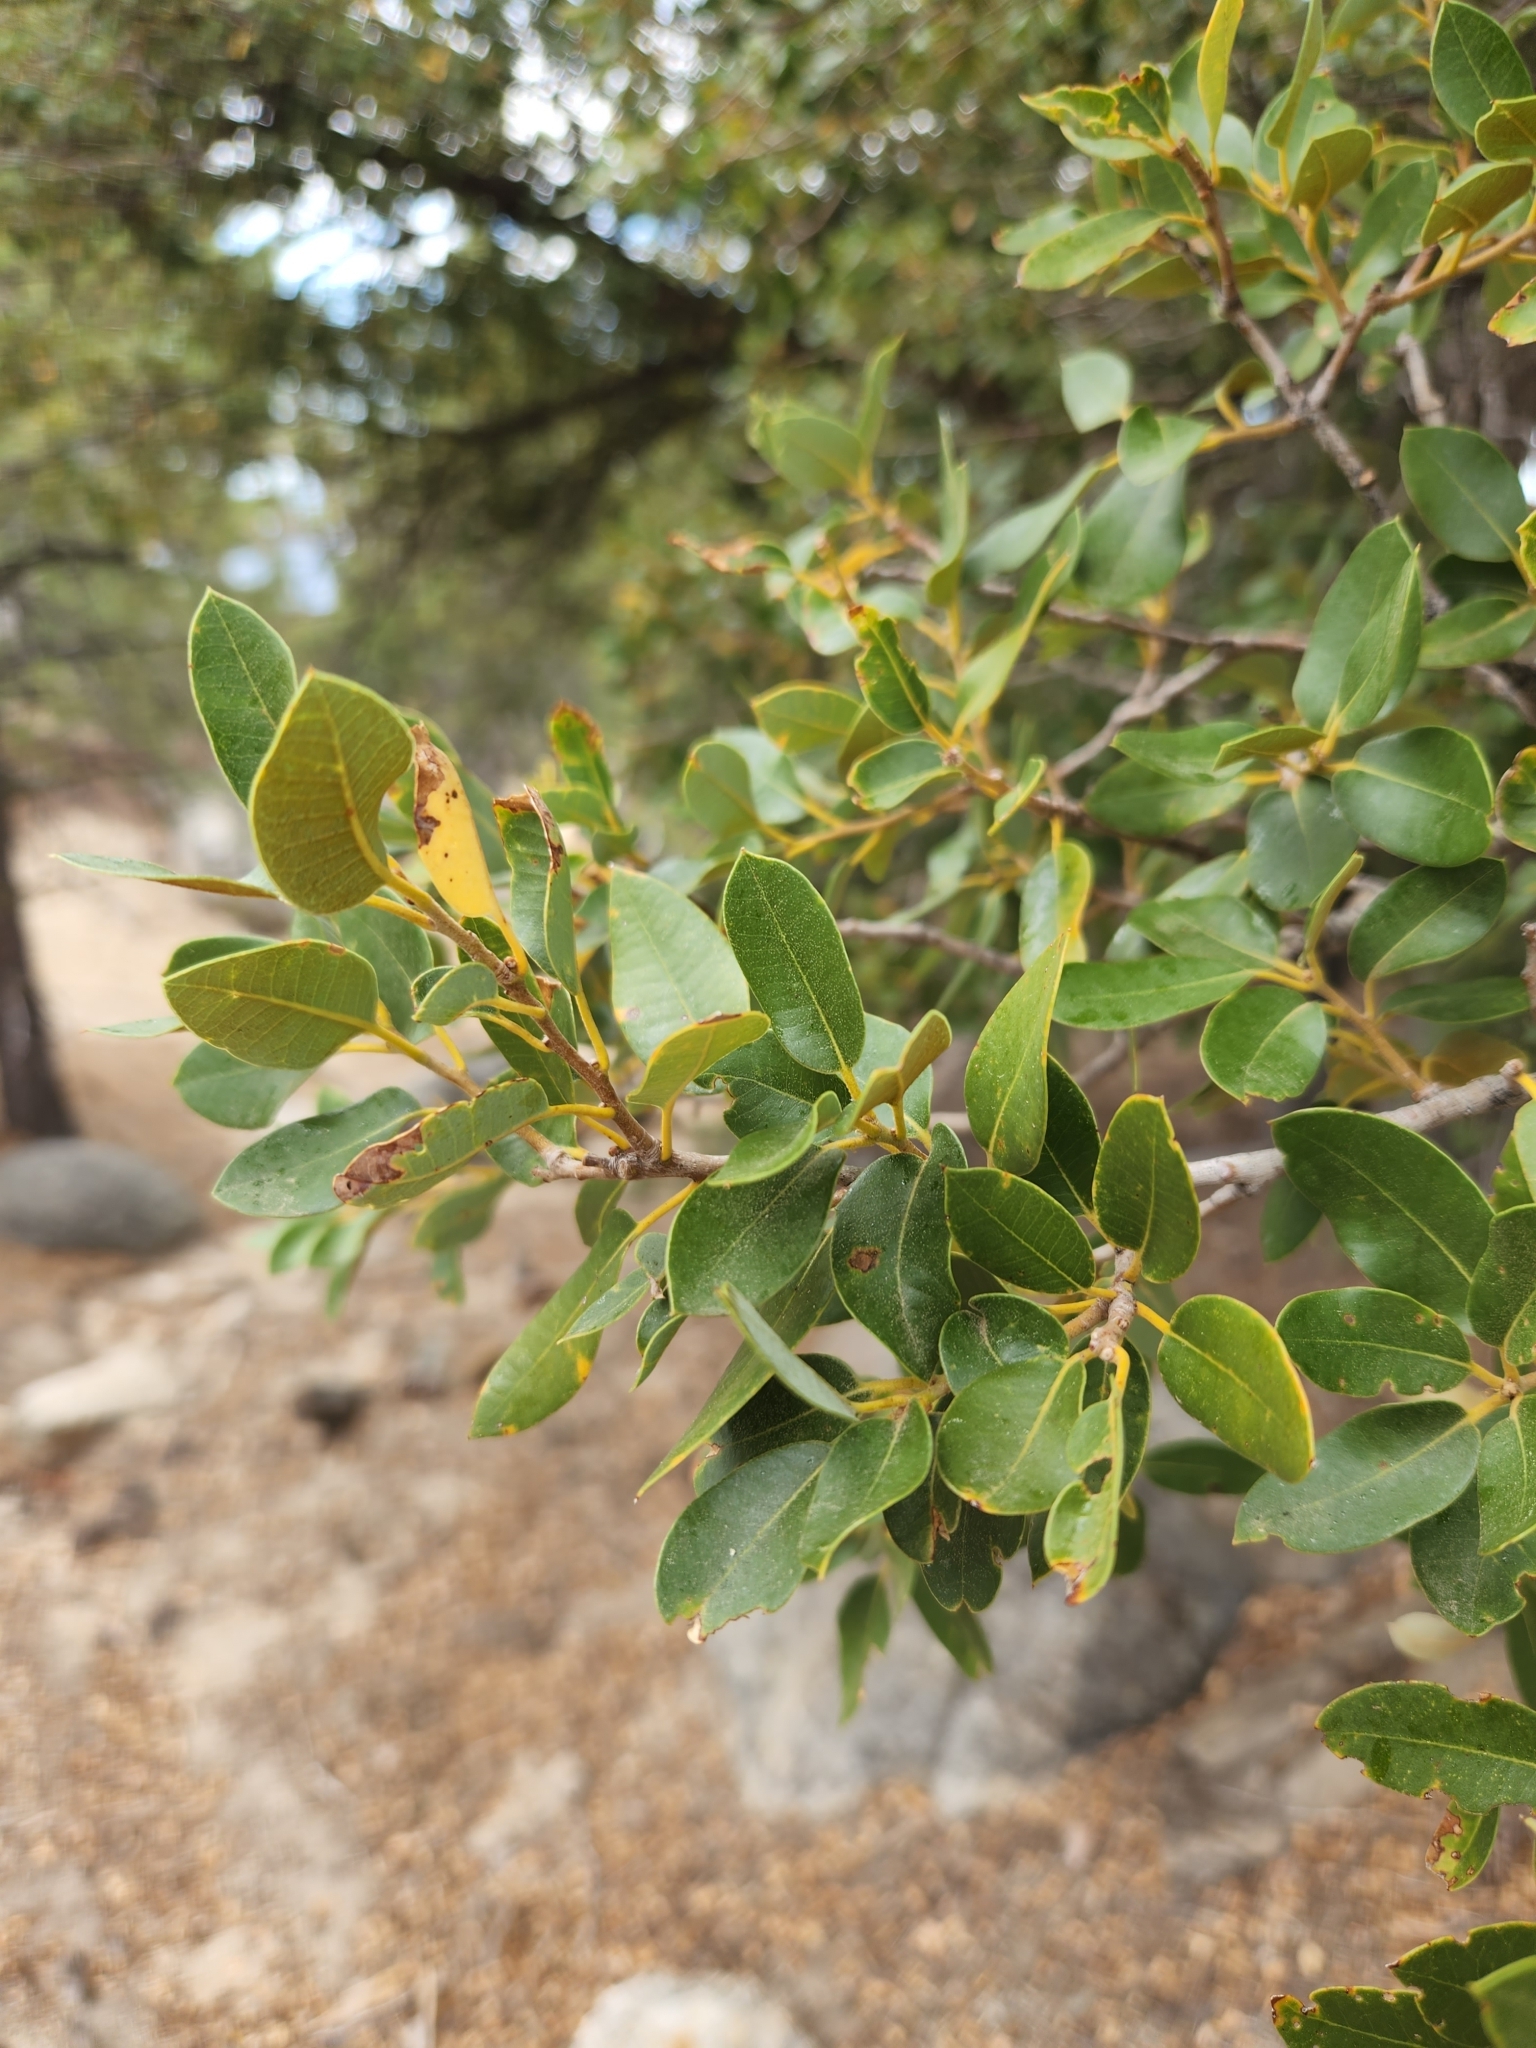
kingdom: Plantae
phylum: Tracheophyta
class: Magnoliopsida
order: Fagales
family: Fagaceae
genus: Quercus
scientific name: Quercus chrysolepis
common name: Canyon live oak
